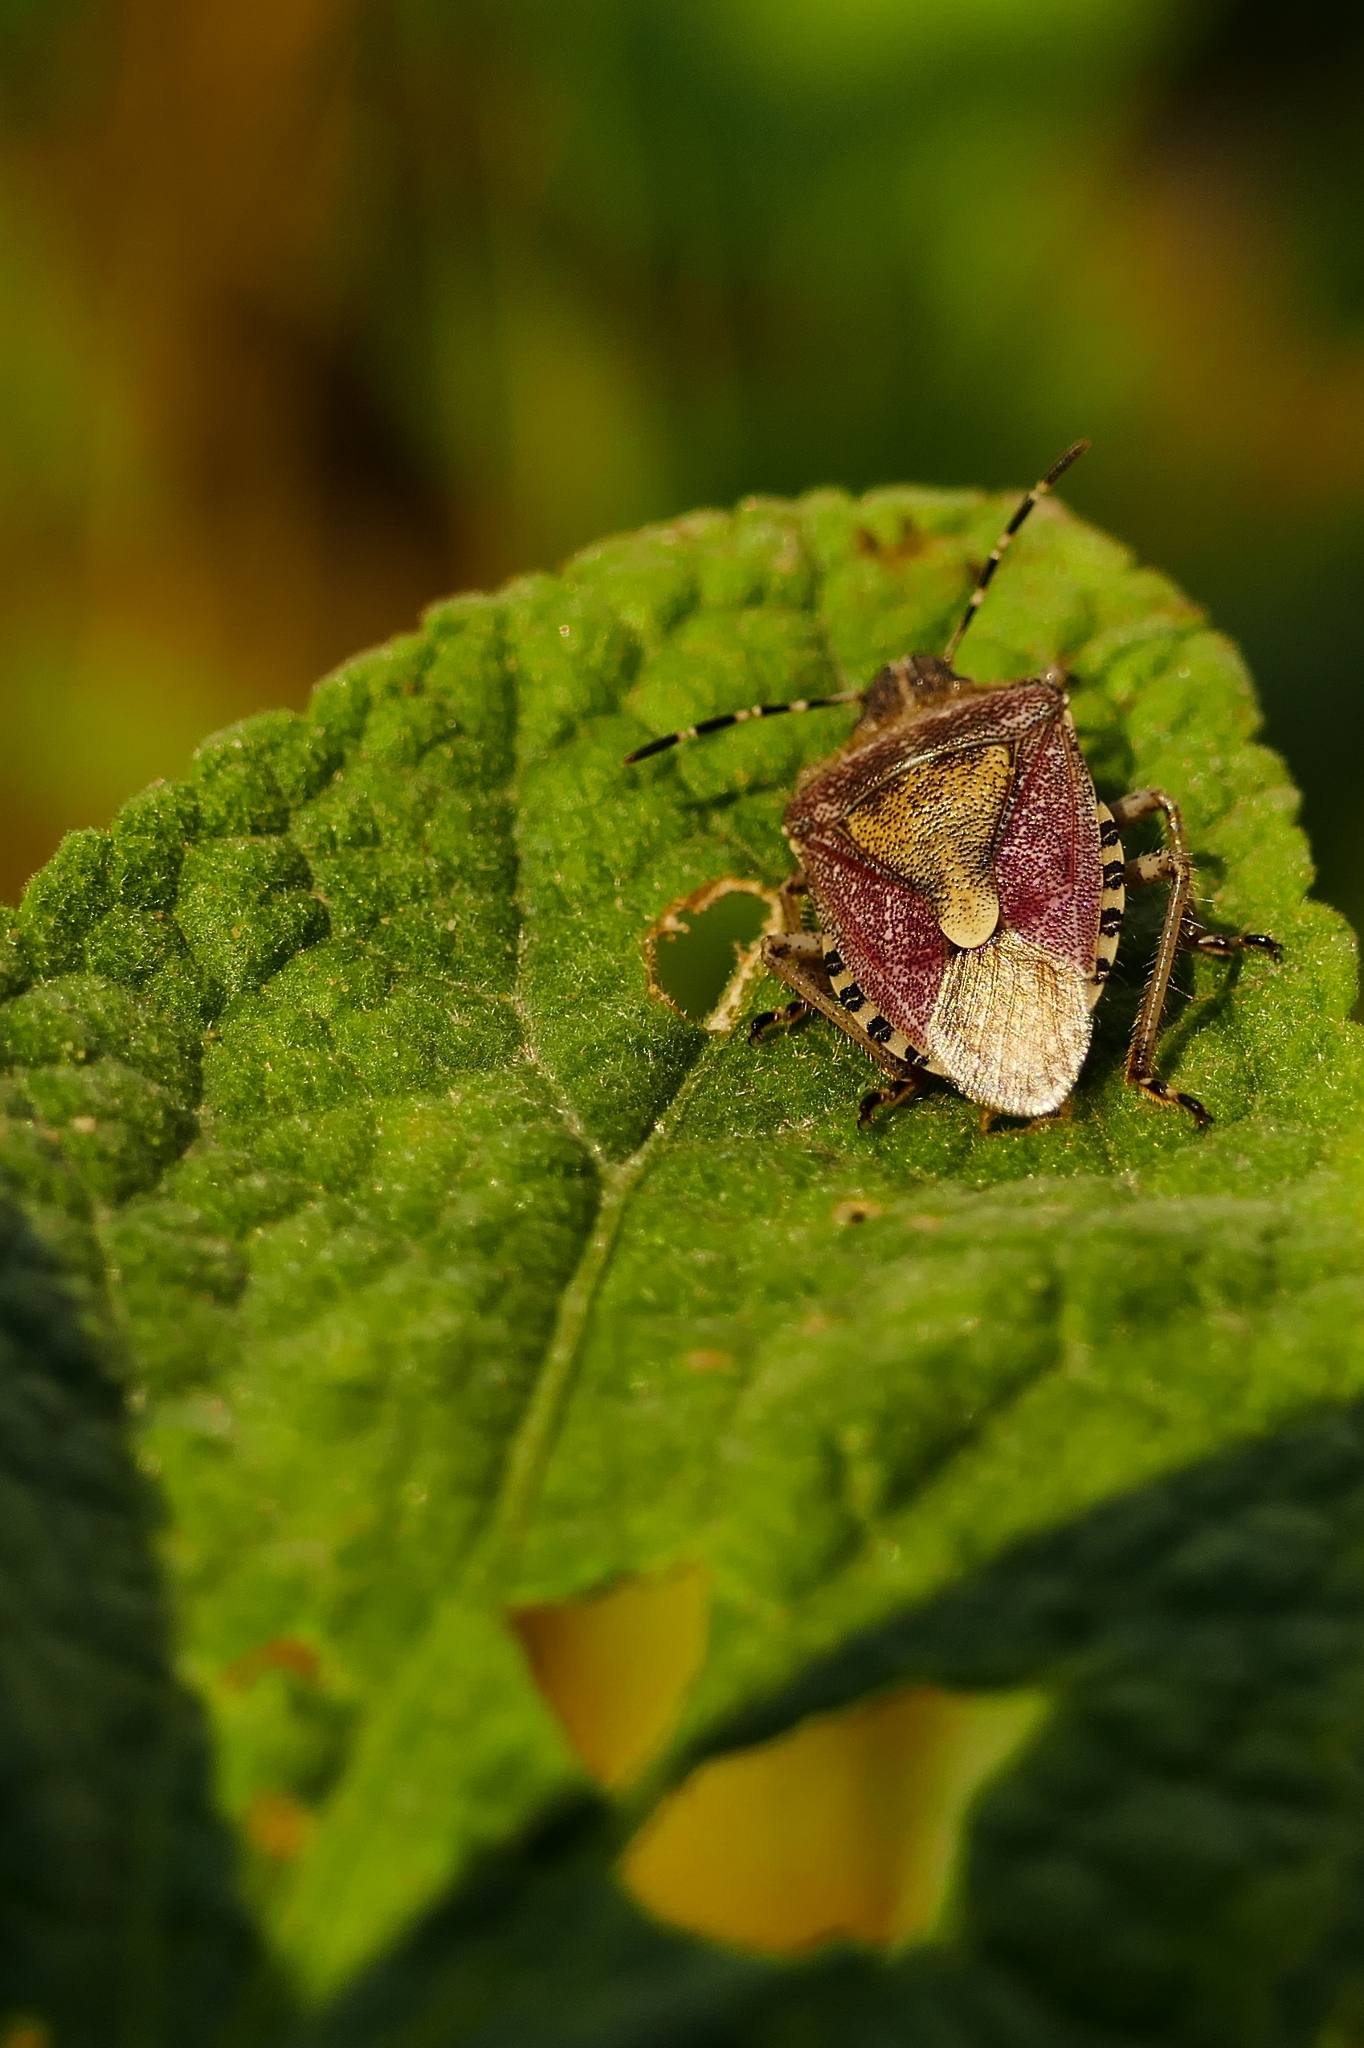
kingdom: Animalia
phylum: Arthropoda
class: Insecta
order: Hemiptera
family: Pentatomidae
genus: Dolycoris
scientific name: Dolycoris baccarum
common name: Sloe bug
